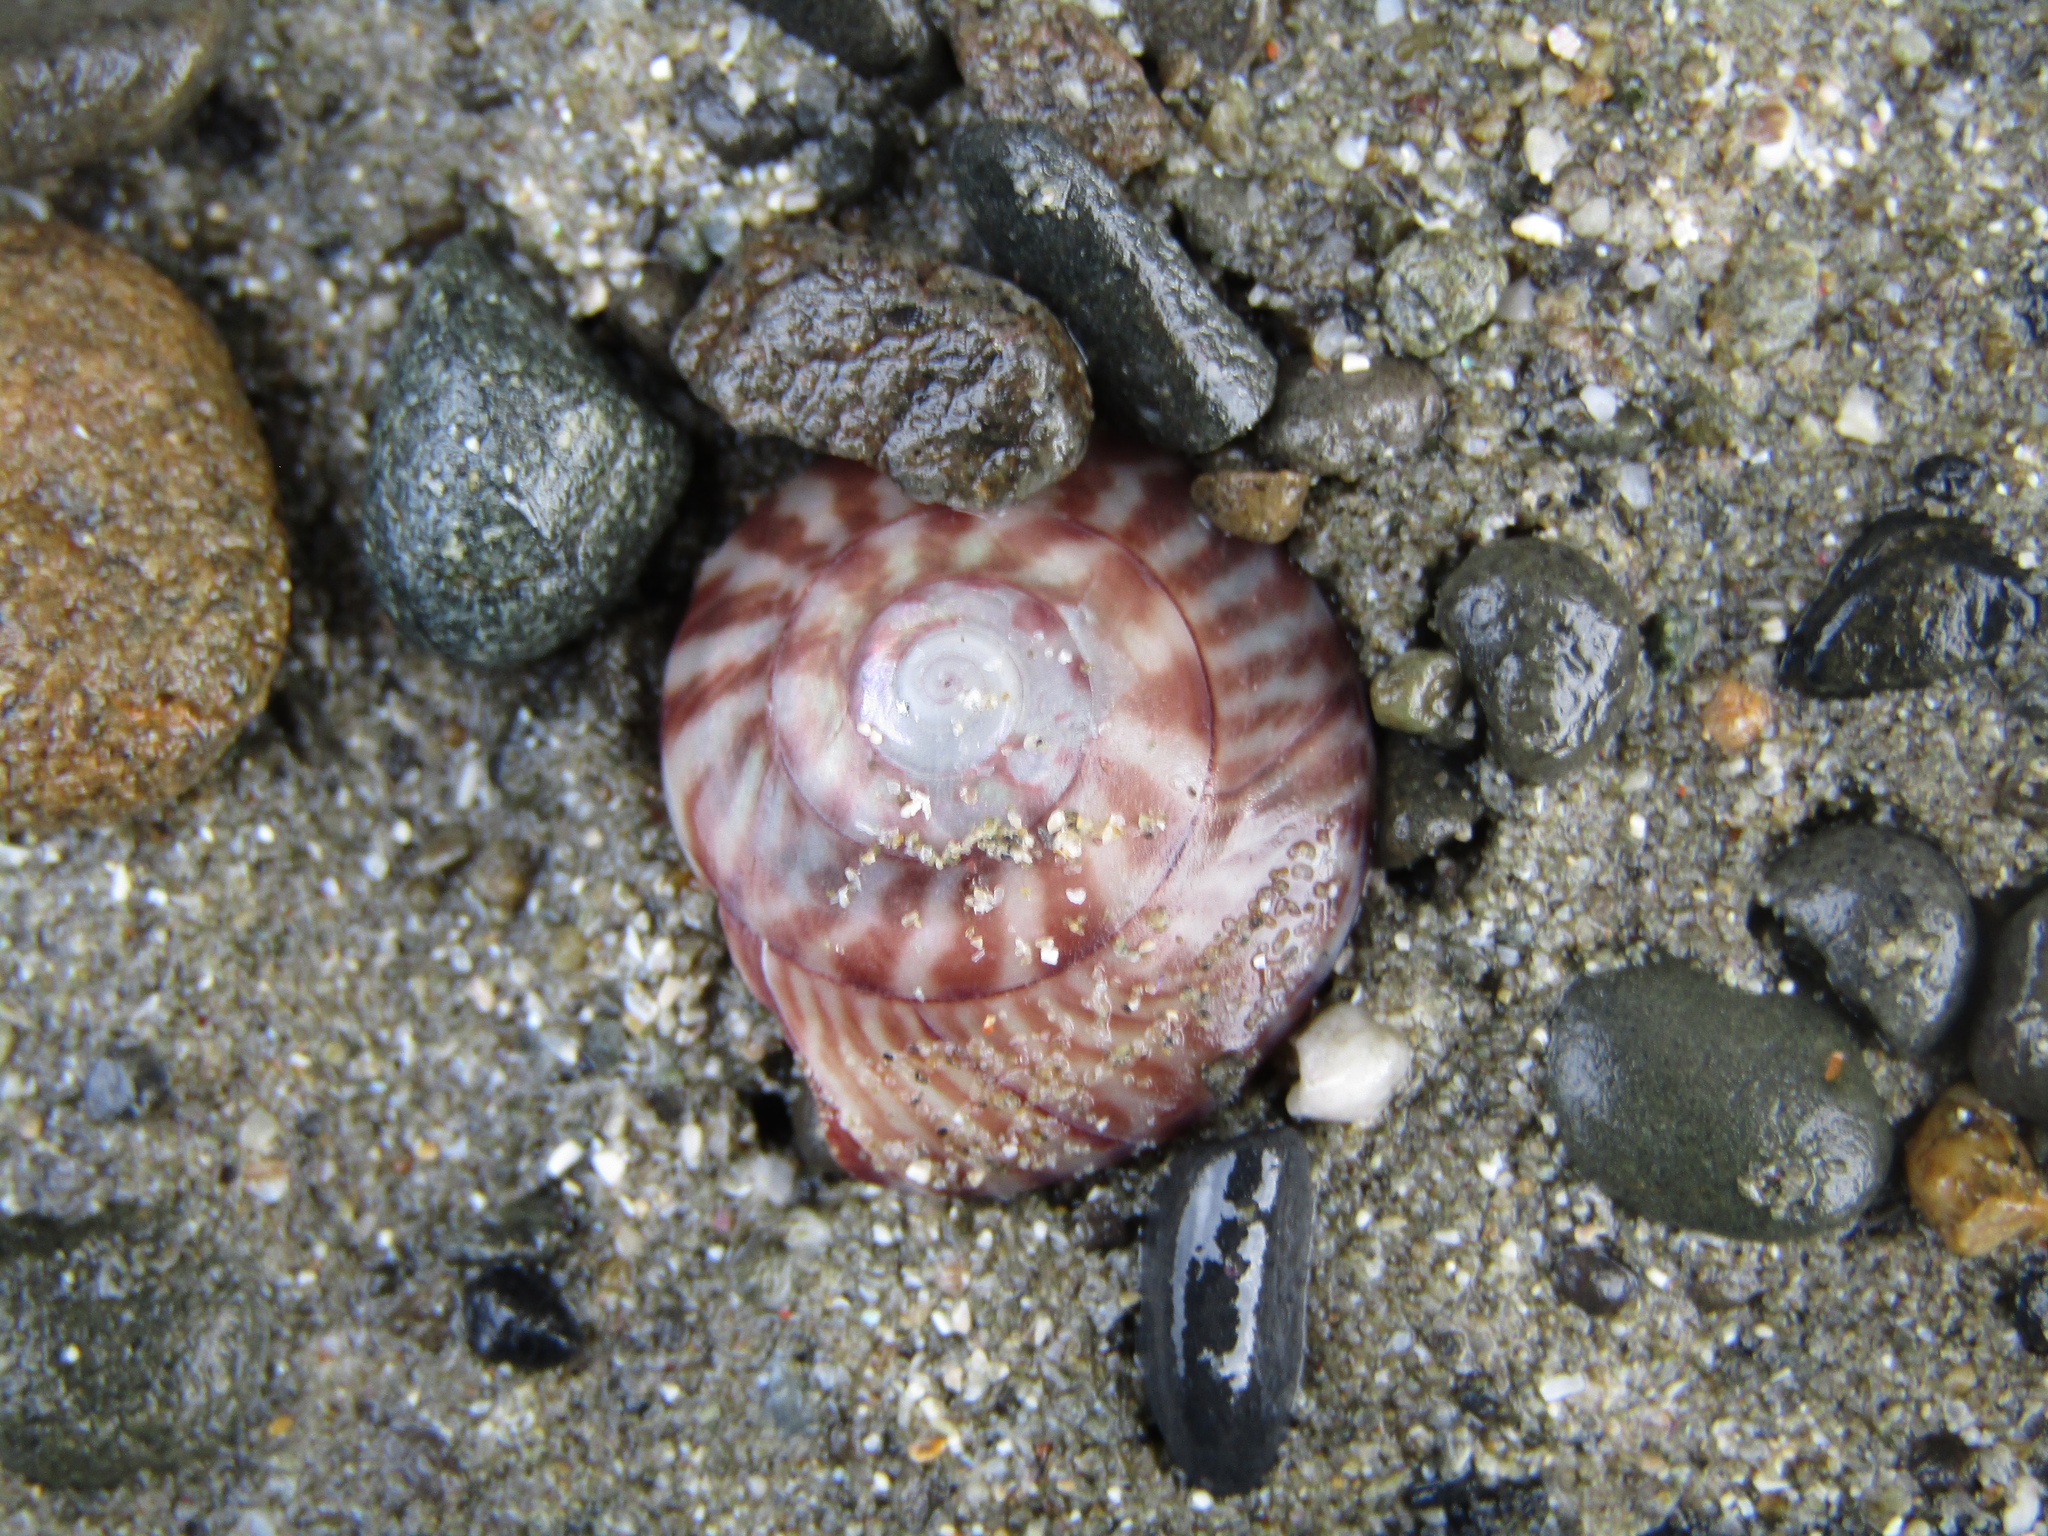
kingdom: Animalia
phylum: Mollusca
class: Gastropoda
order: Trochida
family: Trochidae
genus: Zethalia
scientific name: Zethalia zelandica
